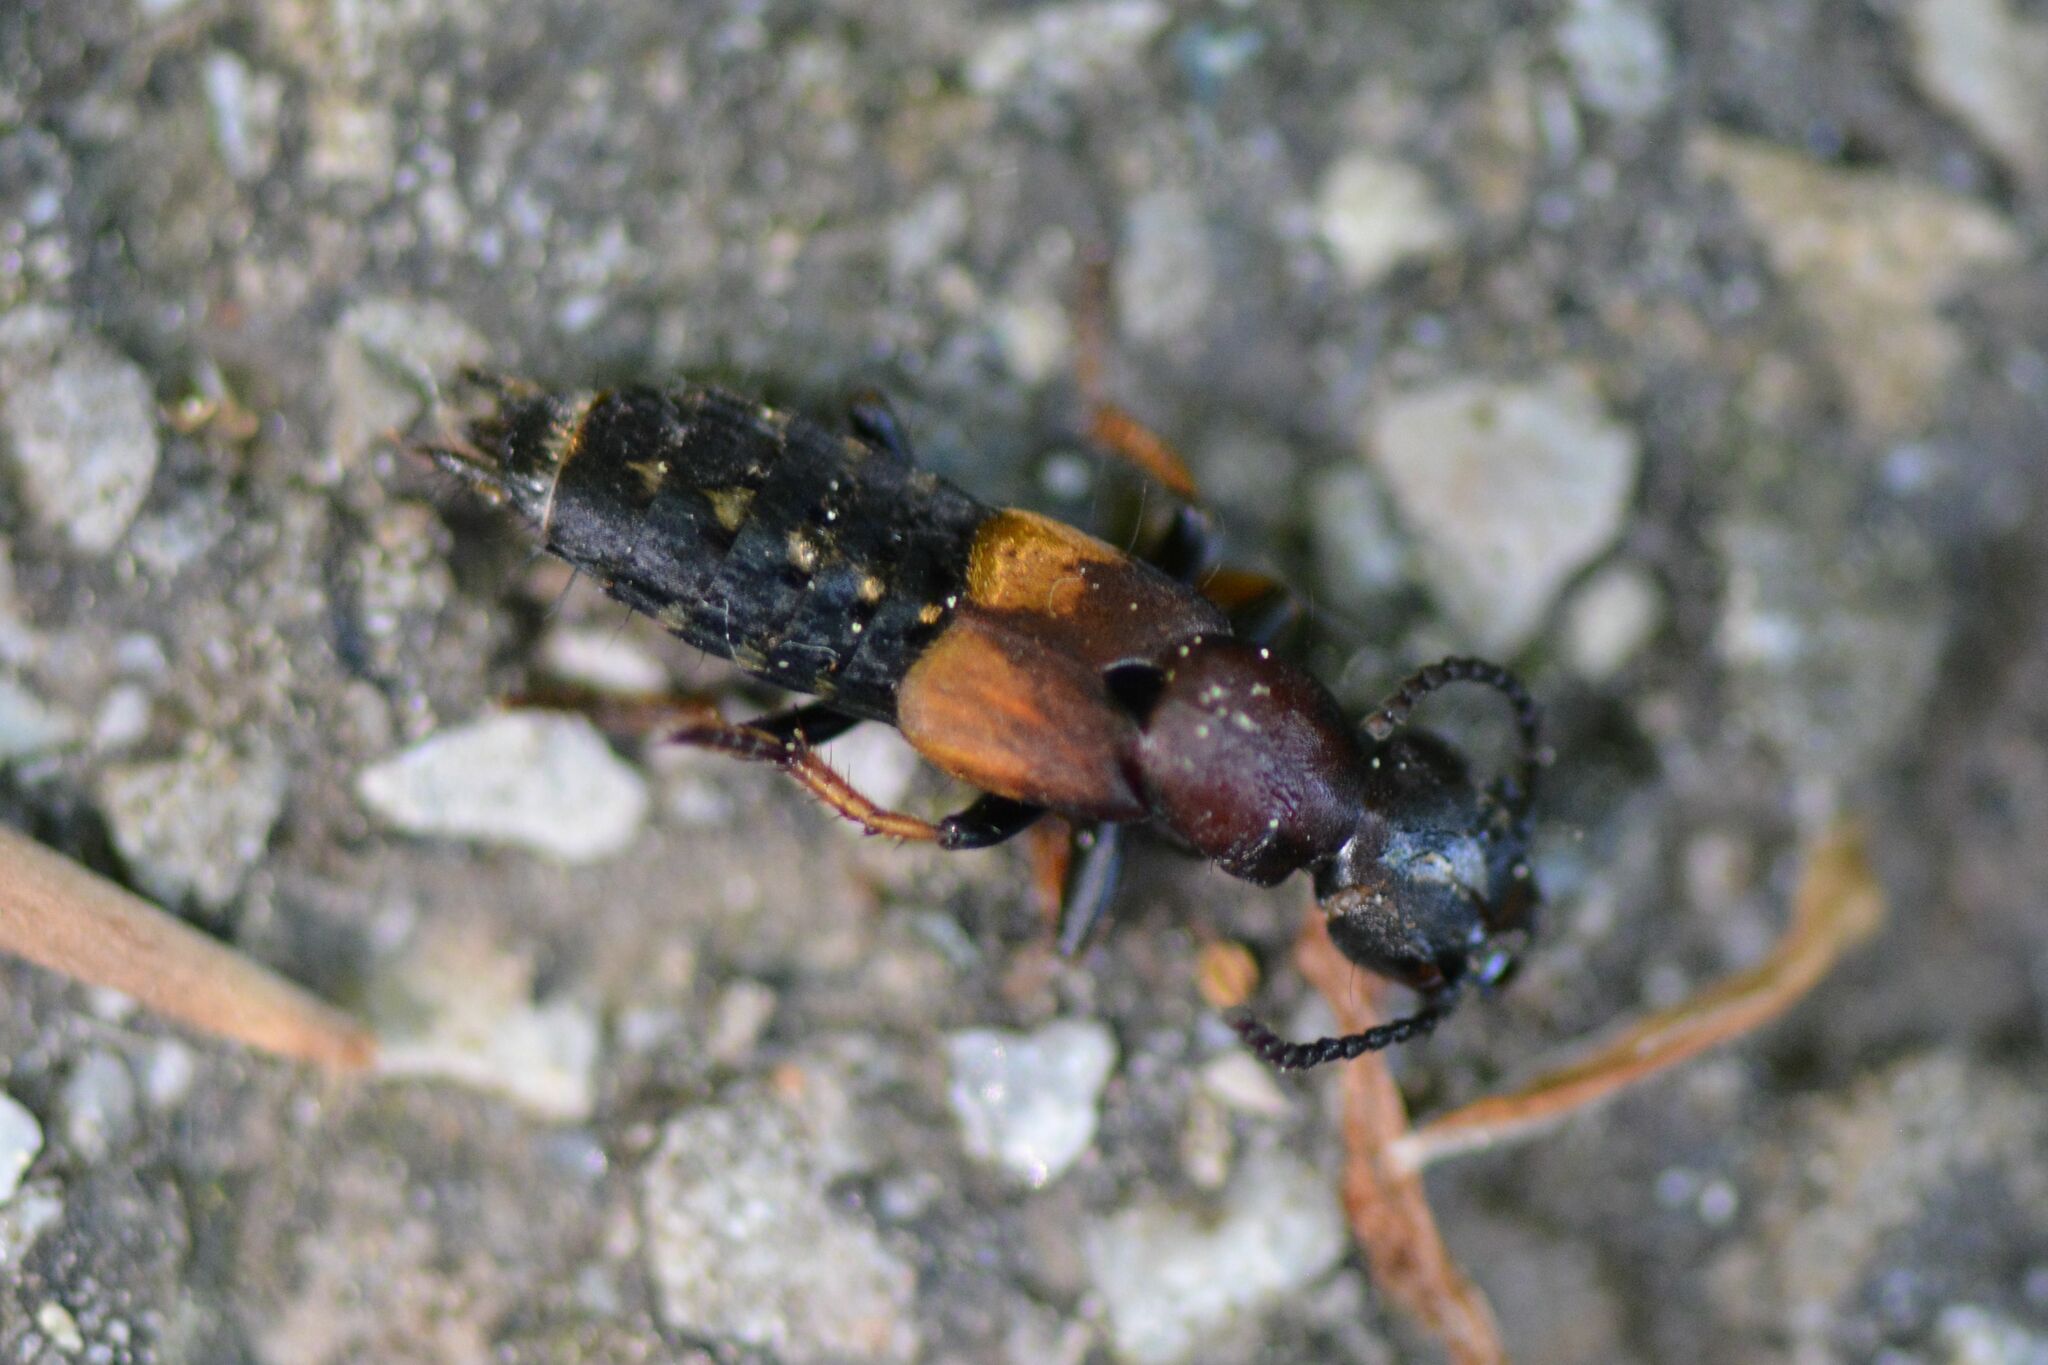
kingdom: Animalia
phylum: Arthropoda
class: Insecta
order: Coleoptera
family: Staphylinidae
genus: Dinothenarus
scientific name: Dinothenarus fossor
